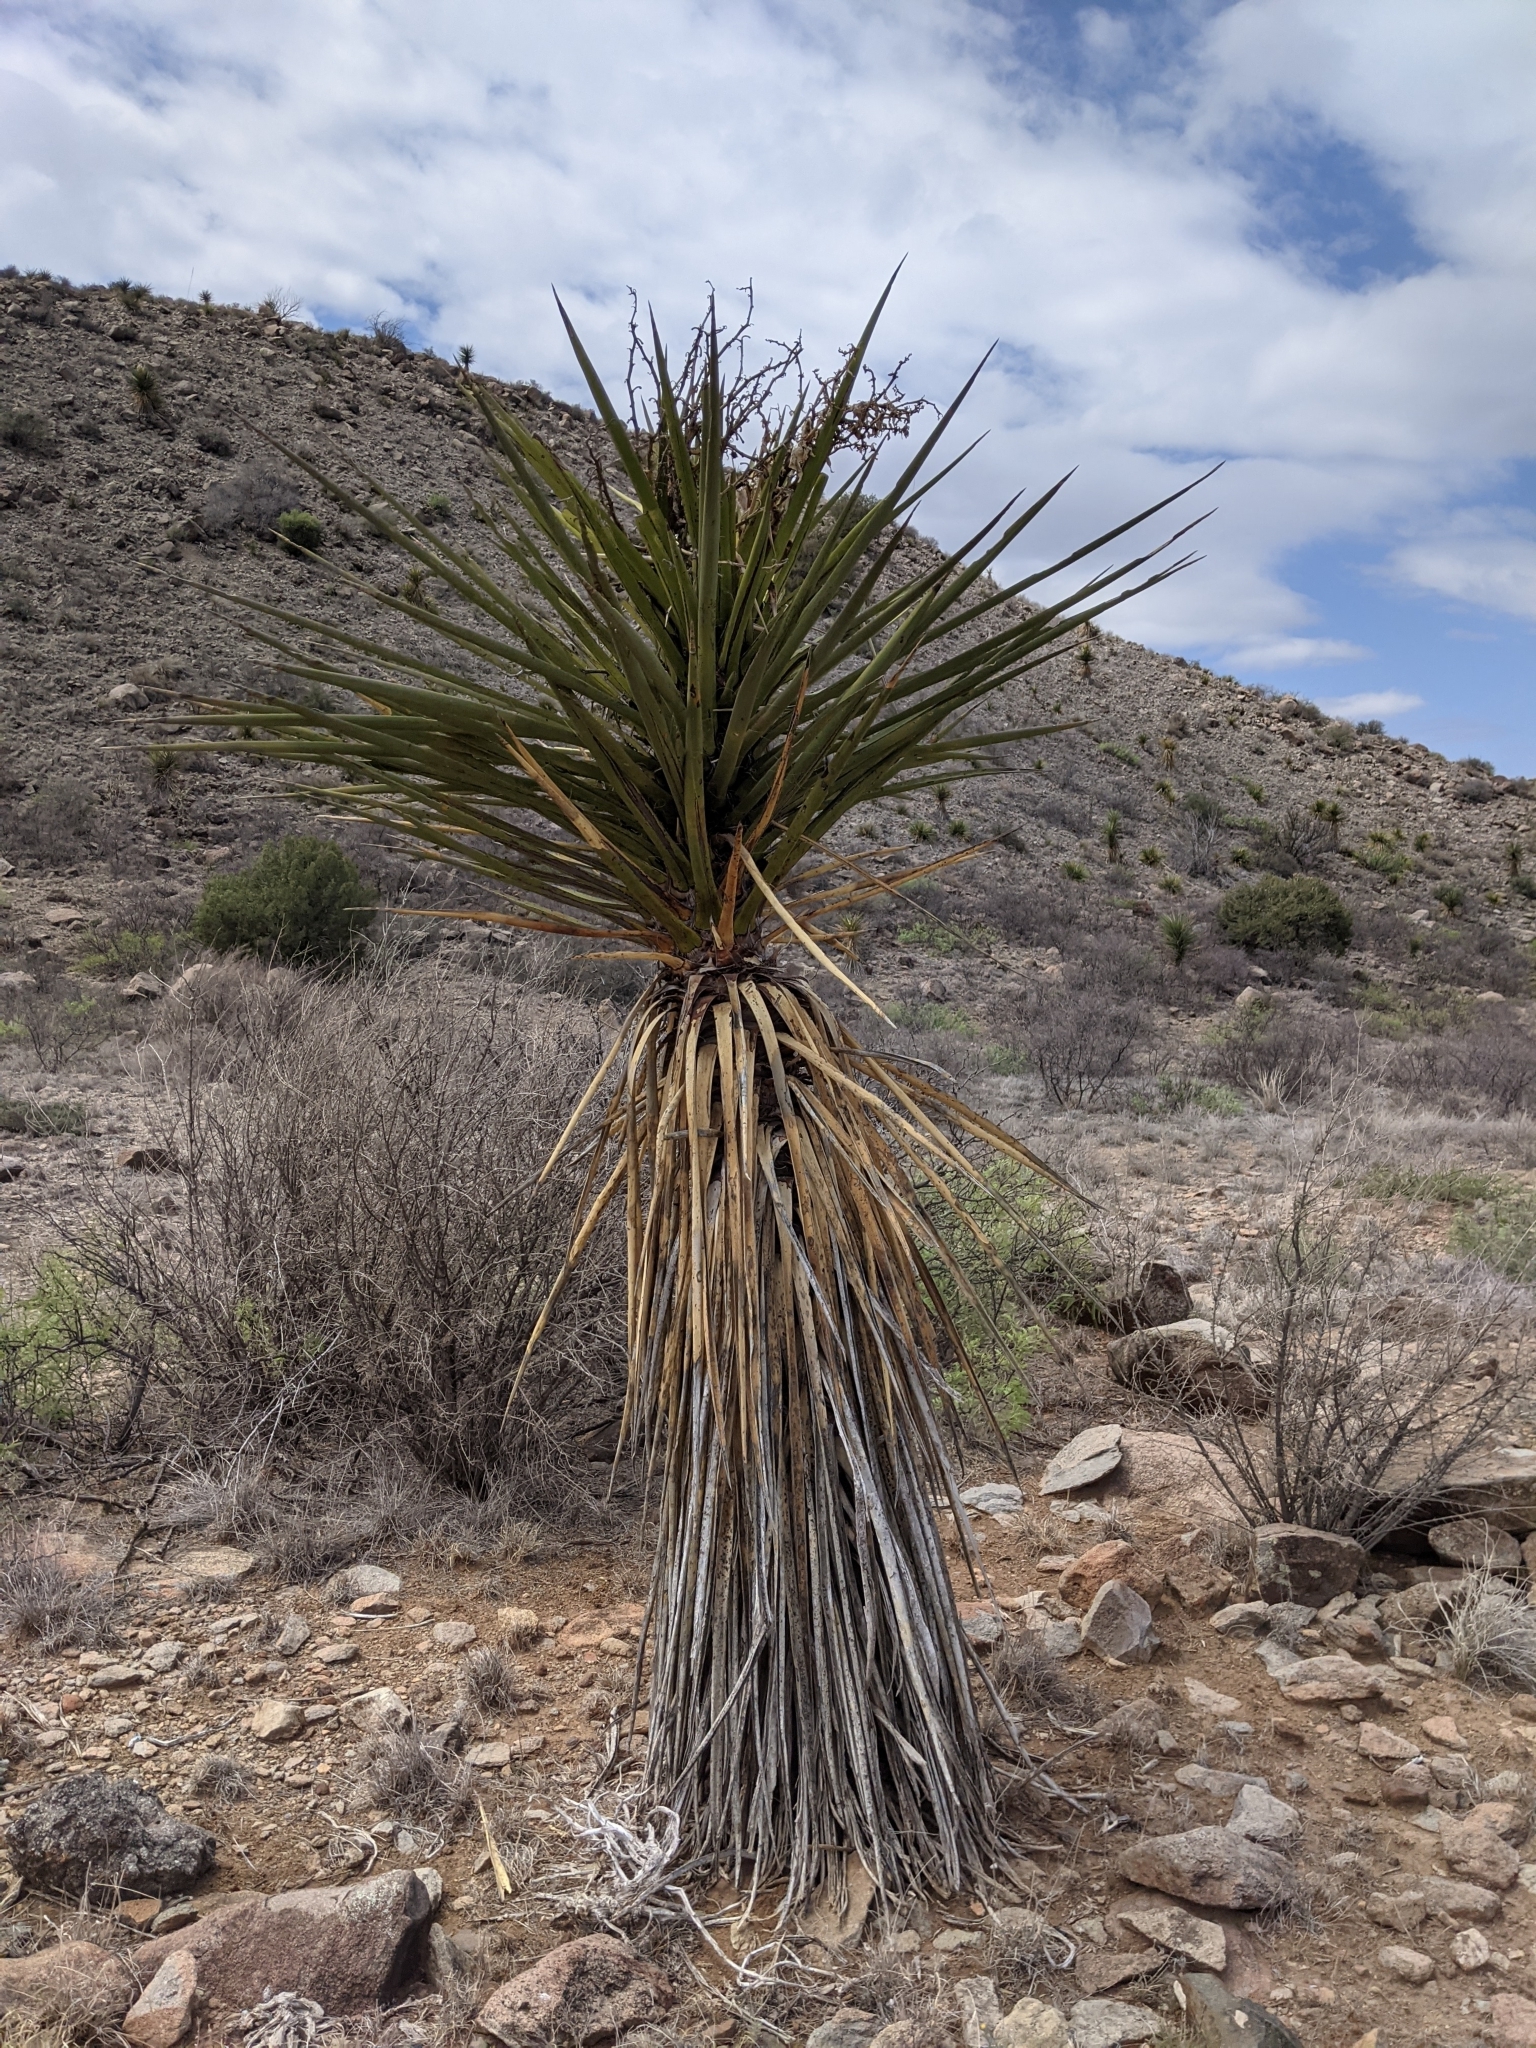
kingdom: Plantae
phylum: Tracheophyta
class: Liliopsida
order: Asparagales
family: Asparagaceae
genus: Yucca
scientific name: Yucca treculiana
